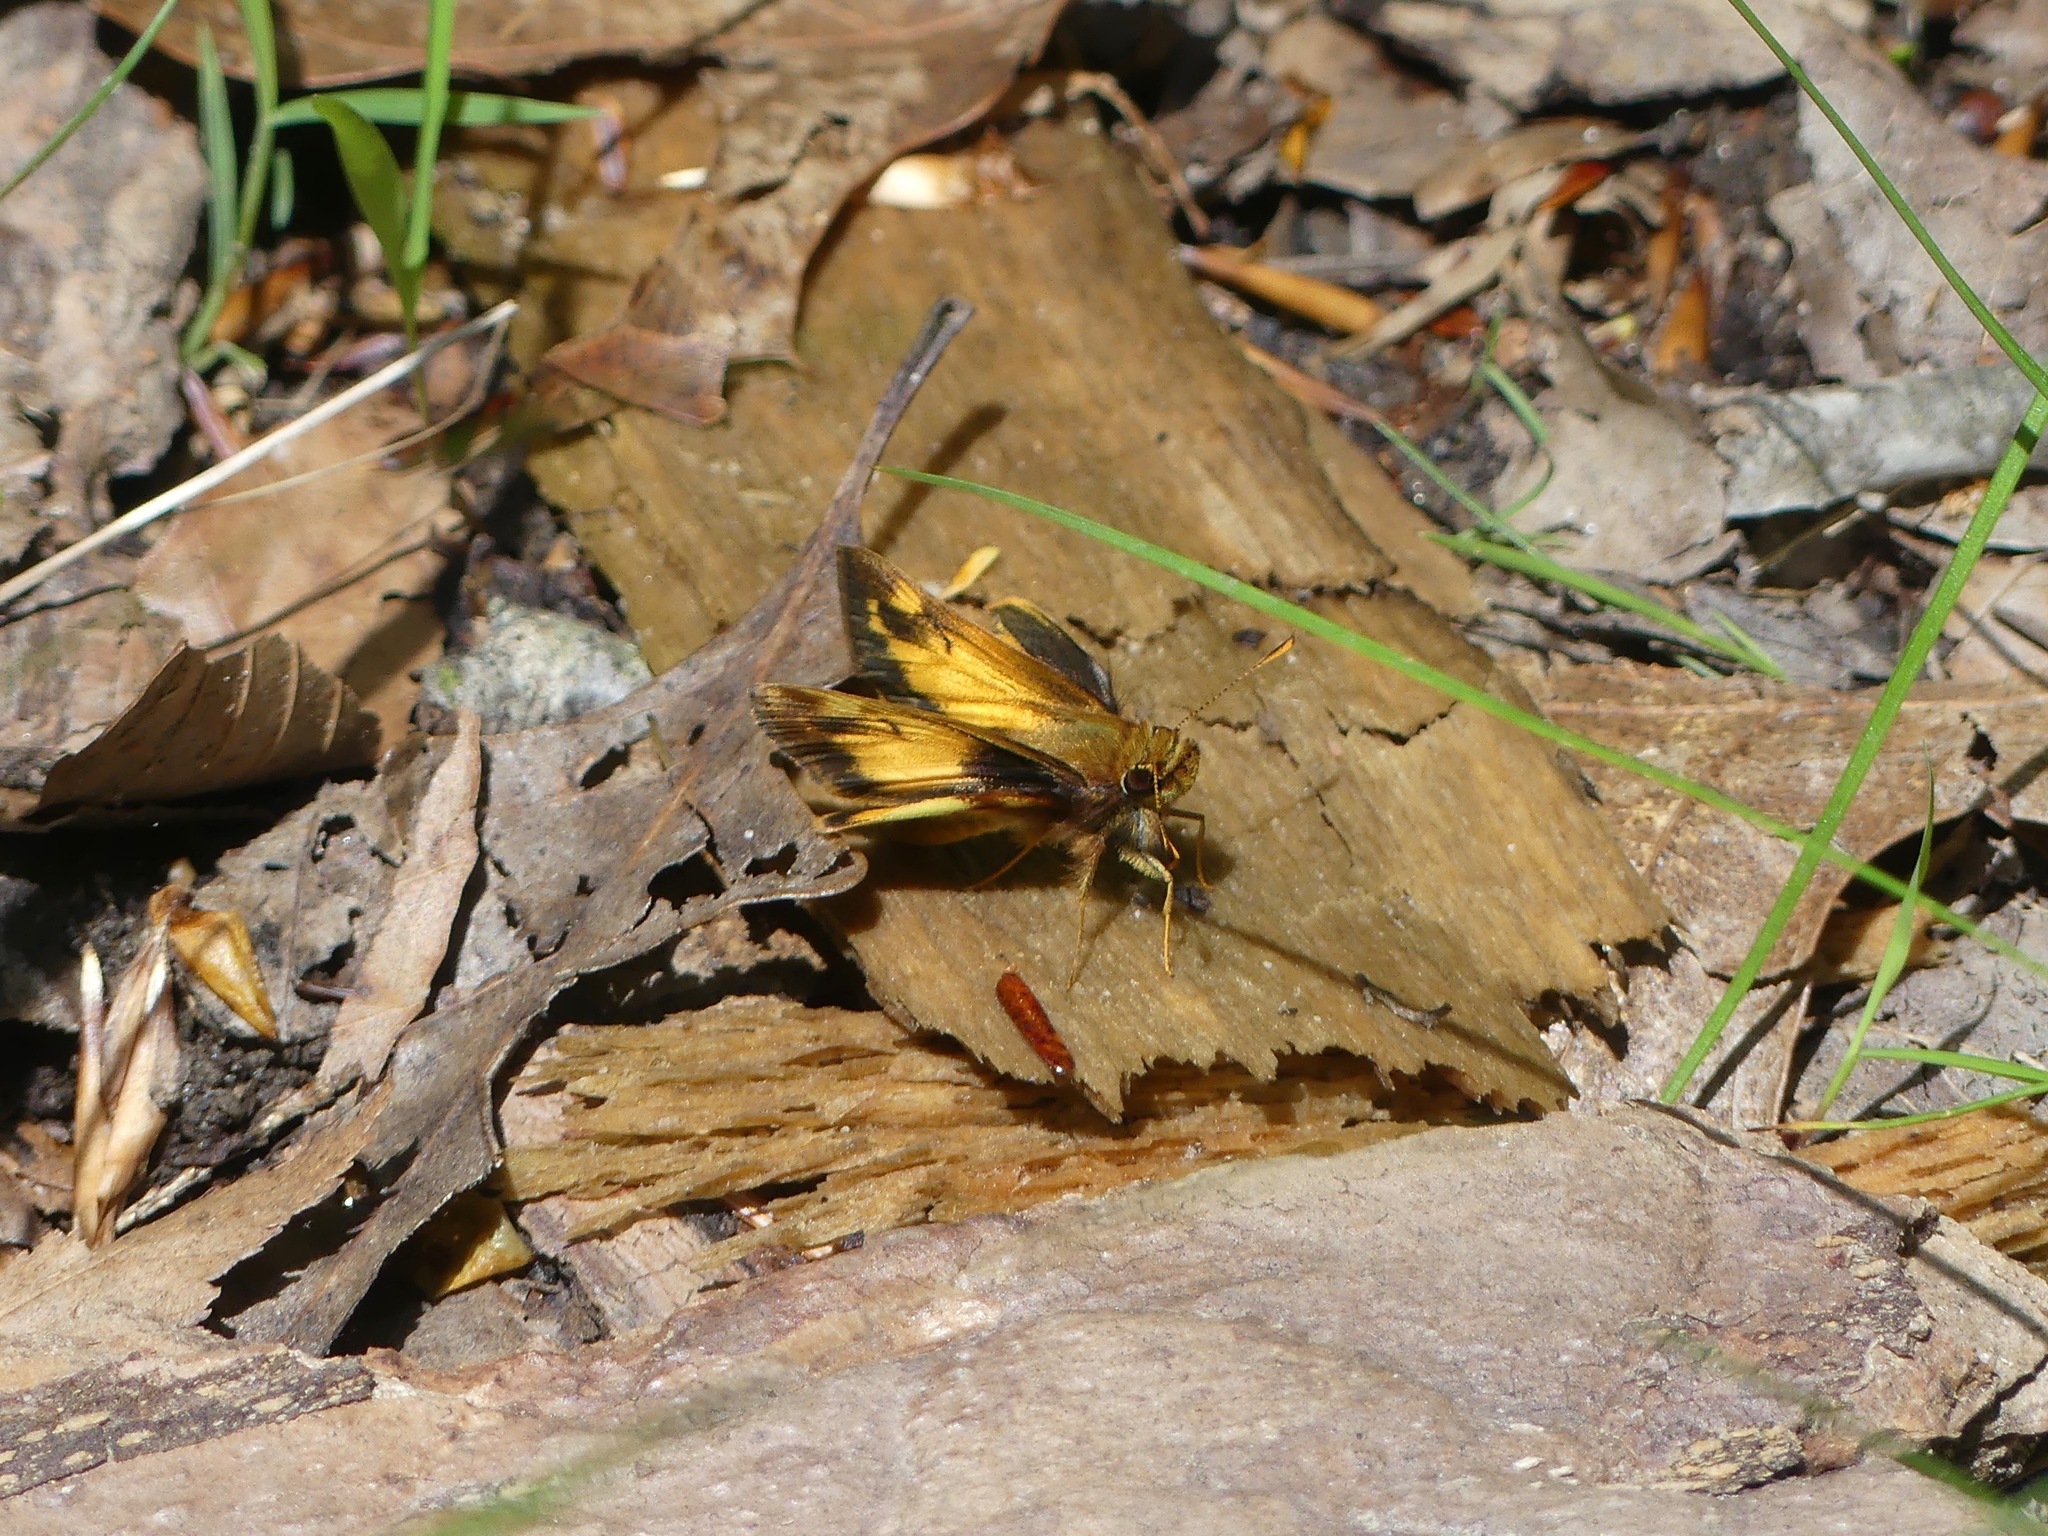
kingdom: Animalia
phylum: Arthropoda
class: Insecta
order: Lepidoptera
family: Hesperiidae
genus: Lon
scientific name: Lon zabulon
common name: Zabulon skipper
